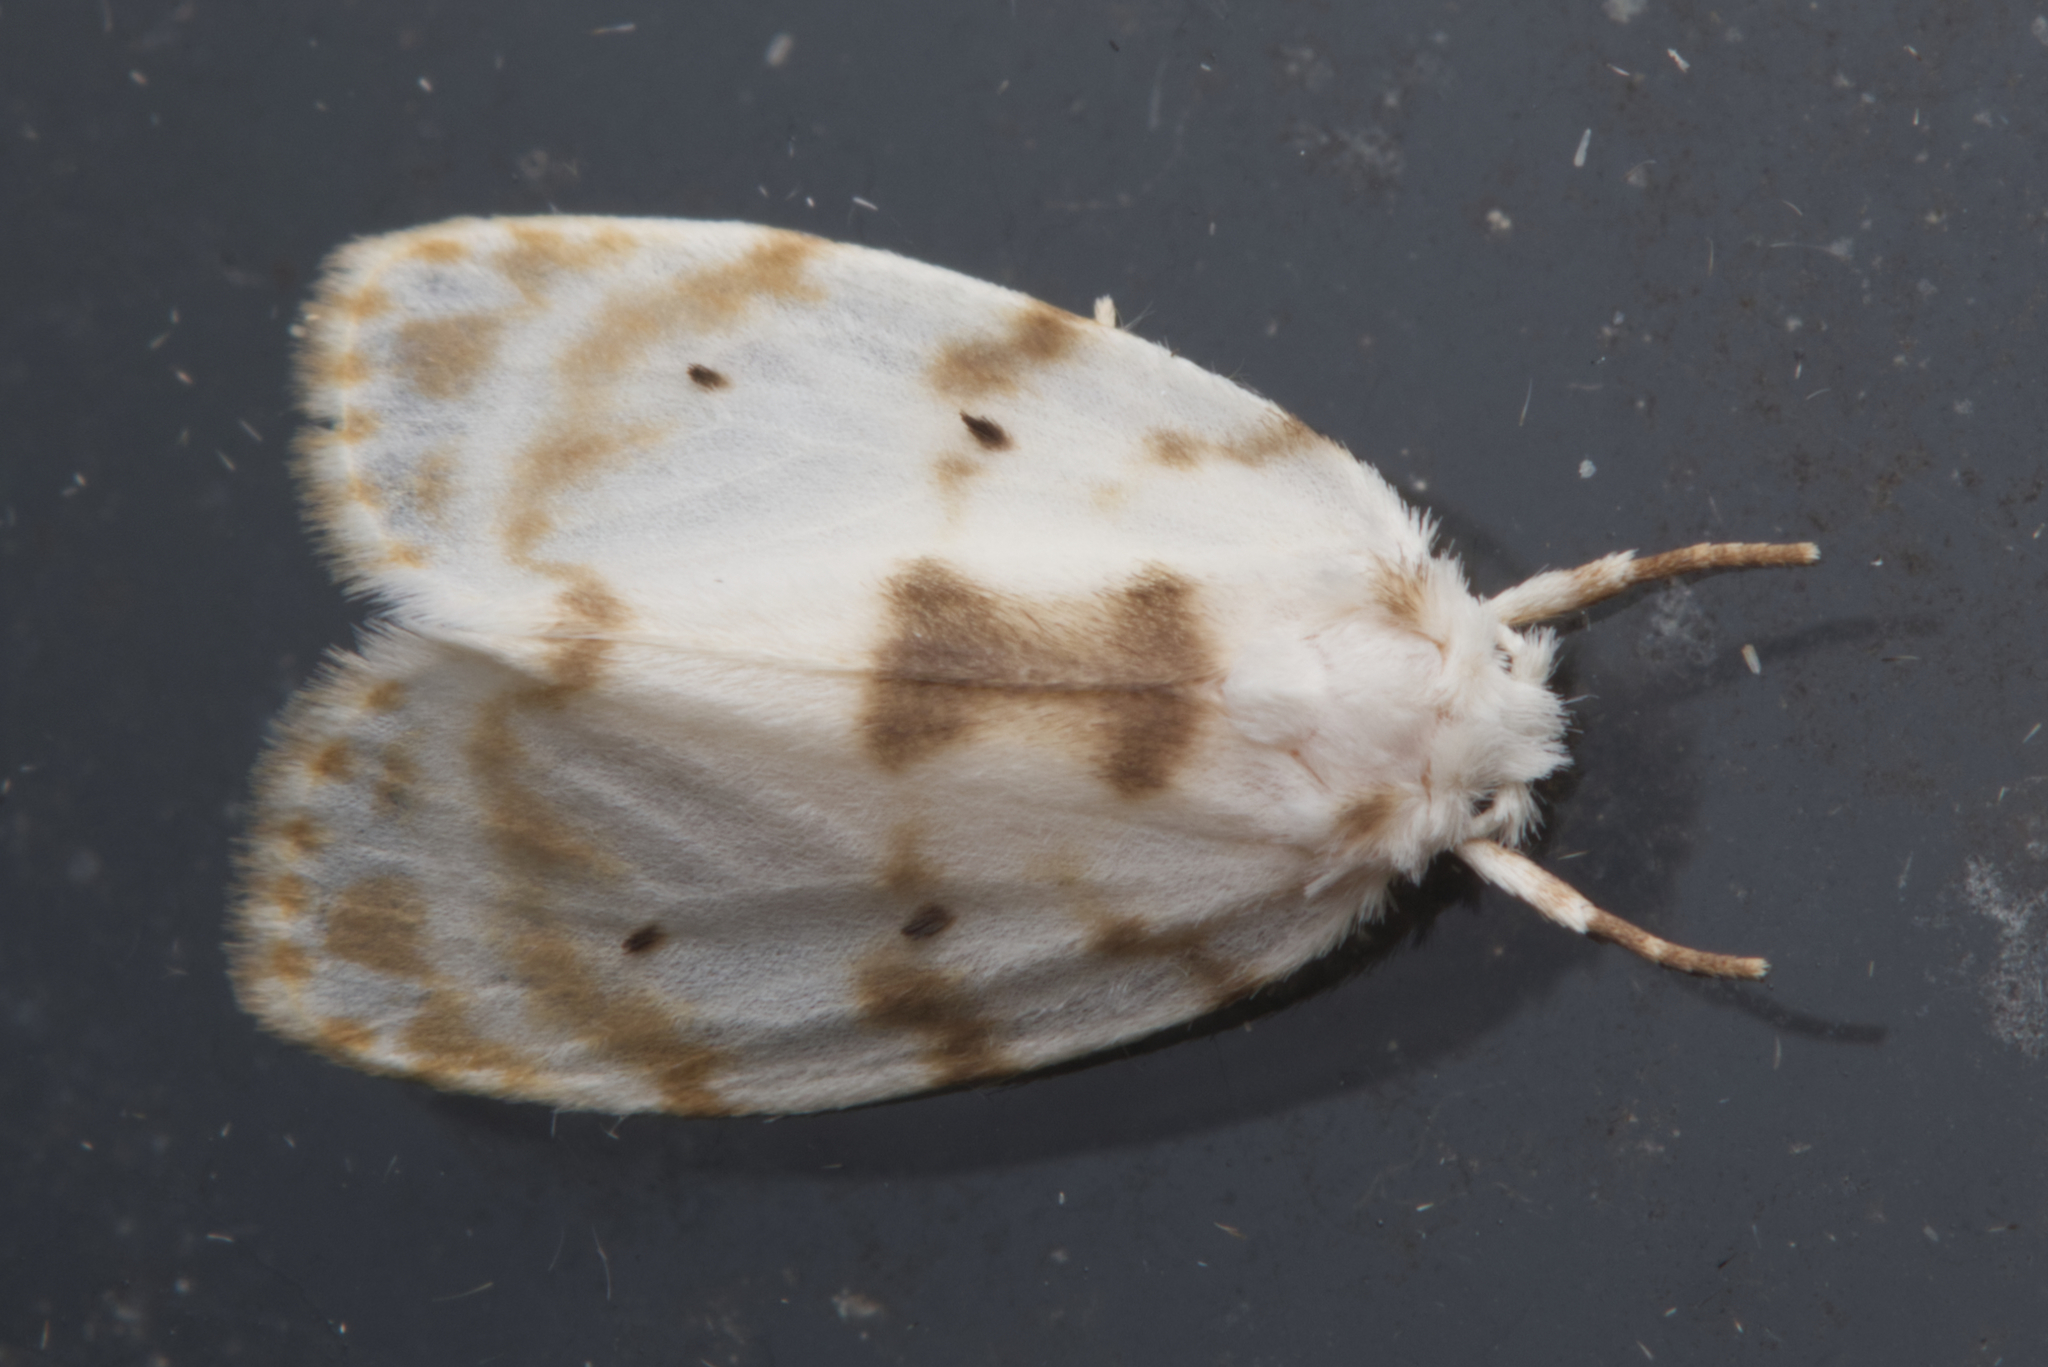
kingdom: Animalia
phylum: Arthropoda
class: Insecta
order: Lepidoptera
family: Erebidae
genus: Schistophleps
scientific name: Schistophleps albida
